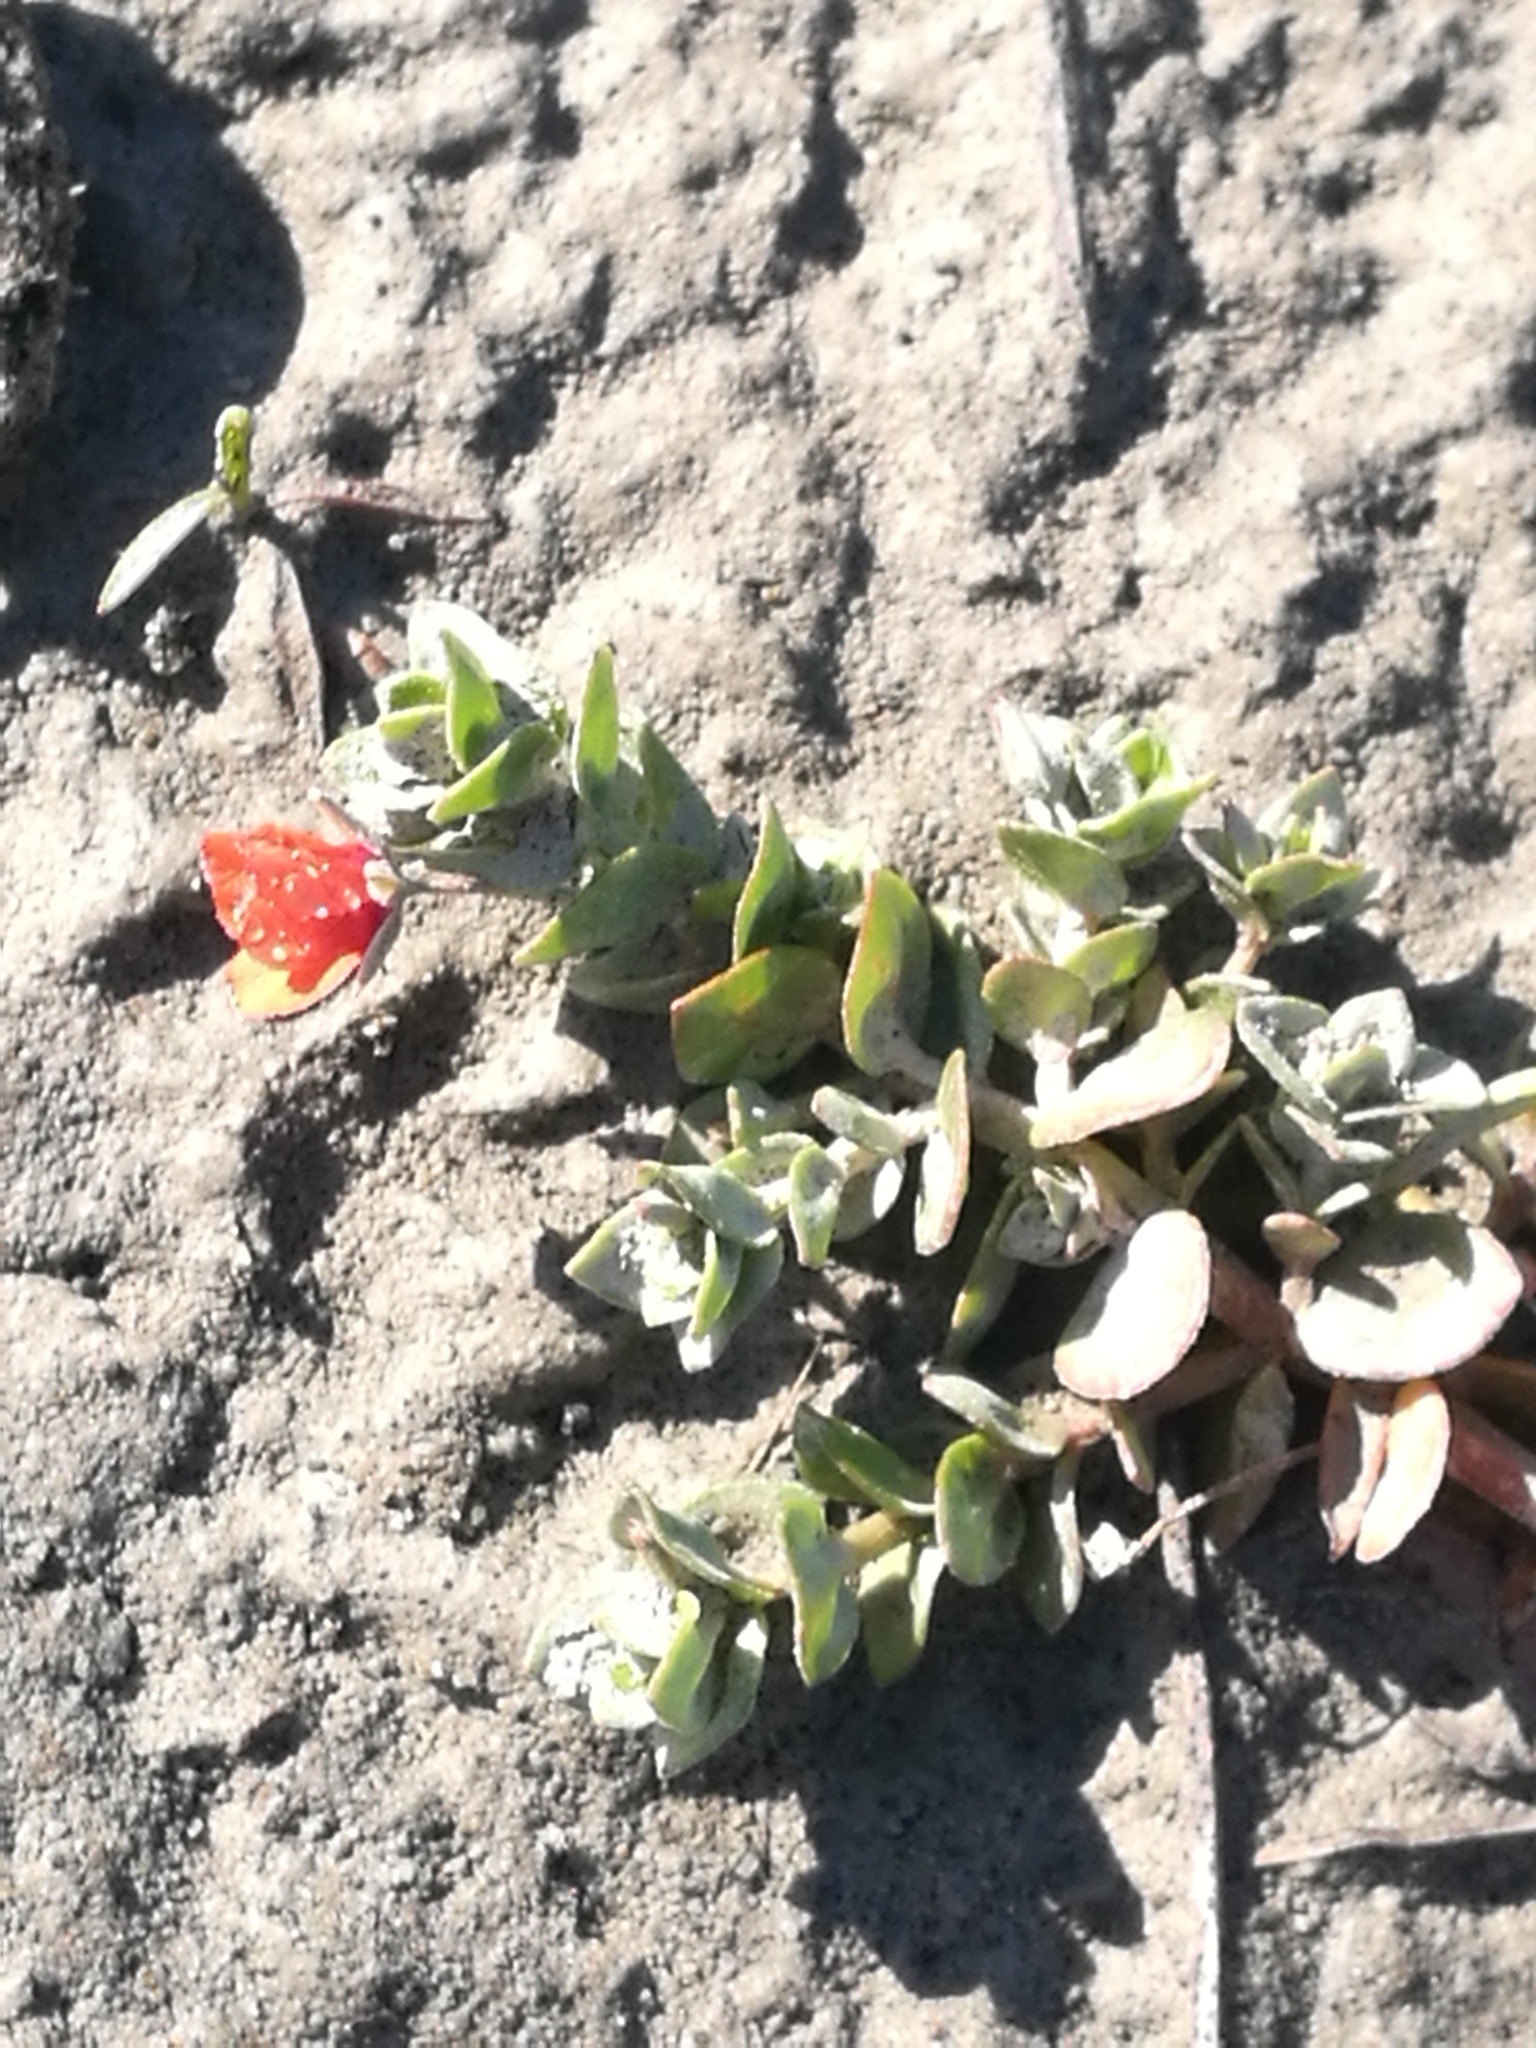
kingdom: Plantae
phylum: Tracheophyta
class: Magnoliopsida
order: Ericales
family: Primulaceae
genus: Lysimachia
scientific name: Lysimachia arvensis
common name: Scarlet pimpernel
